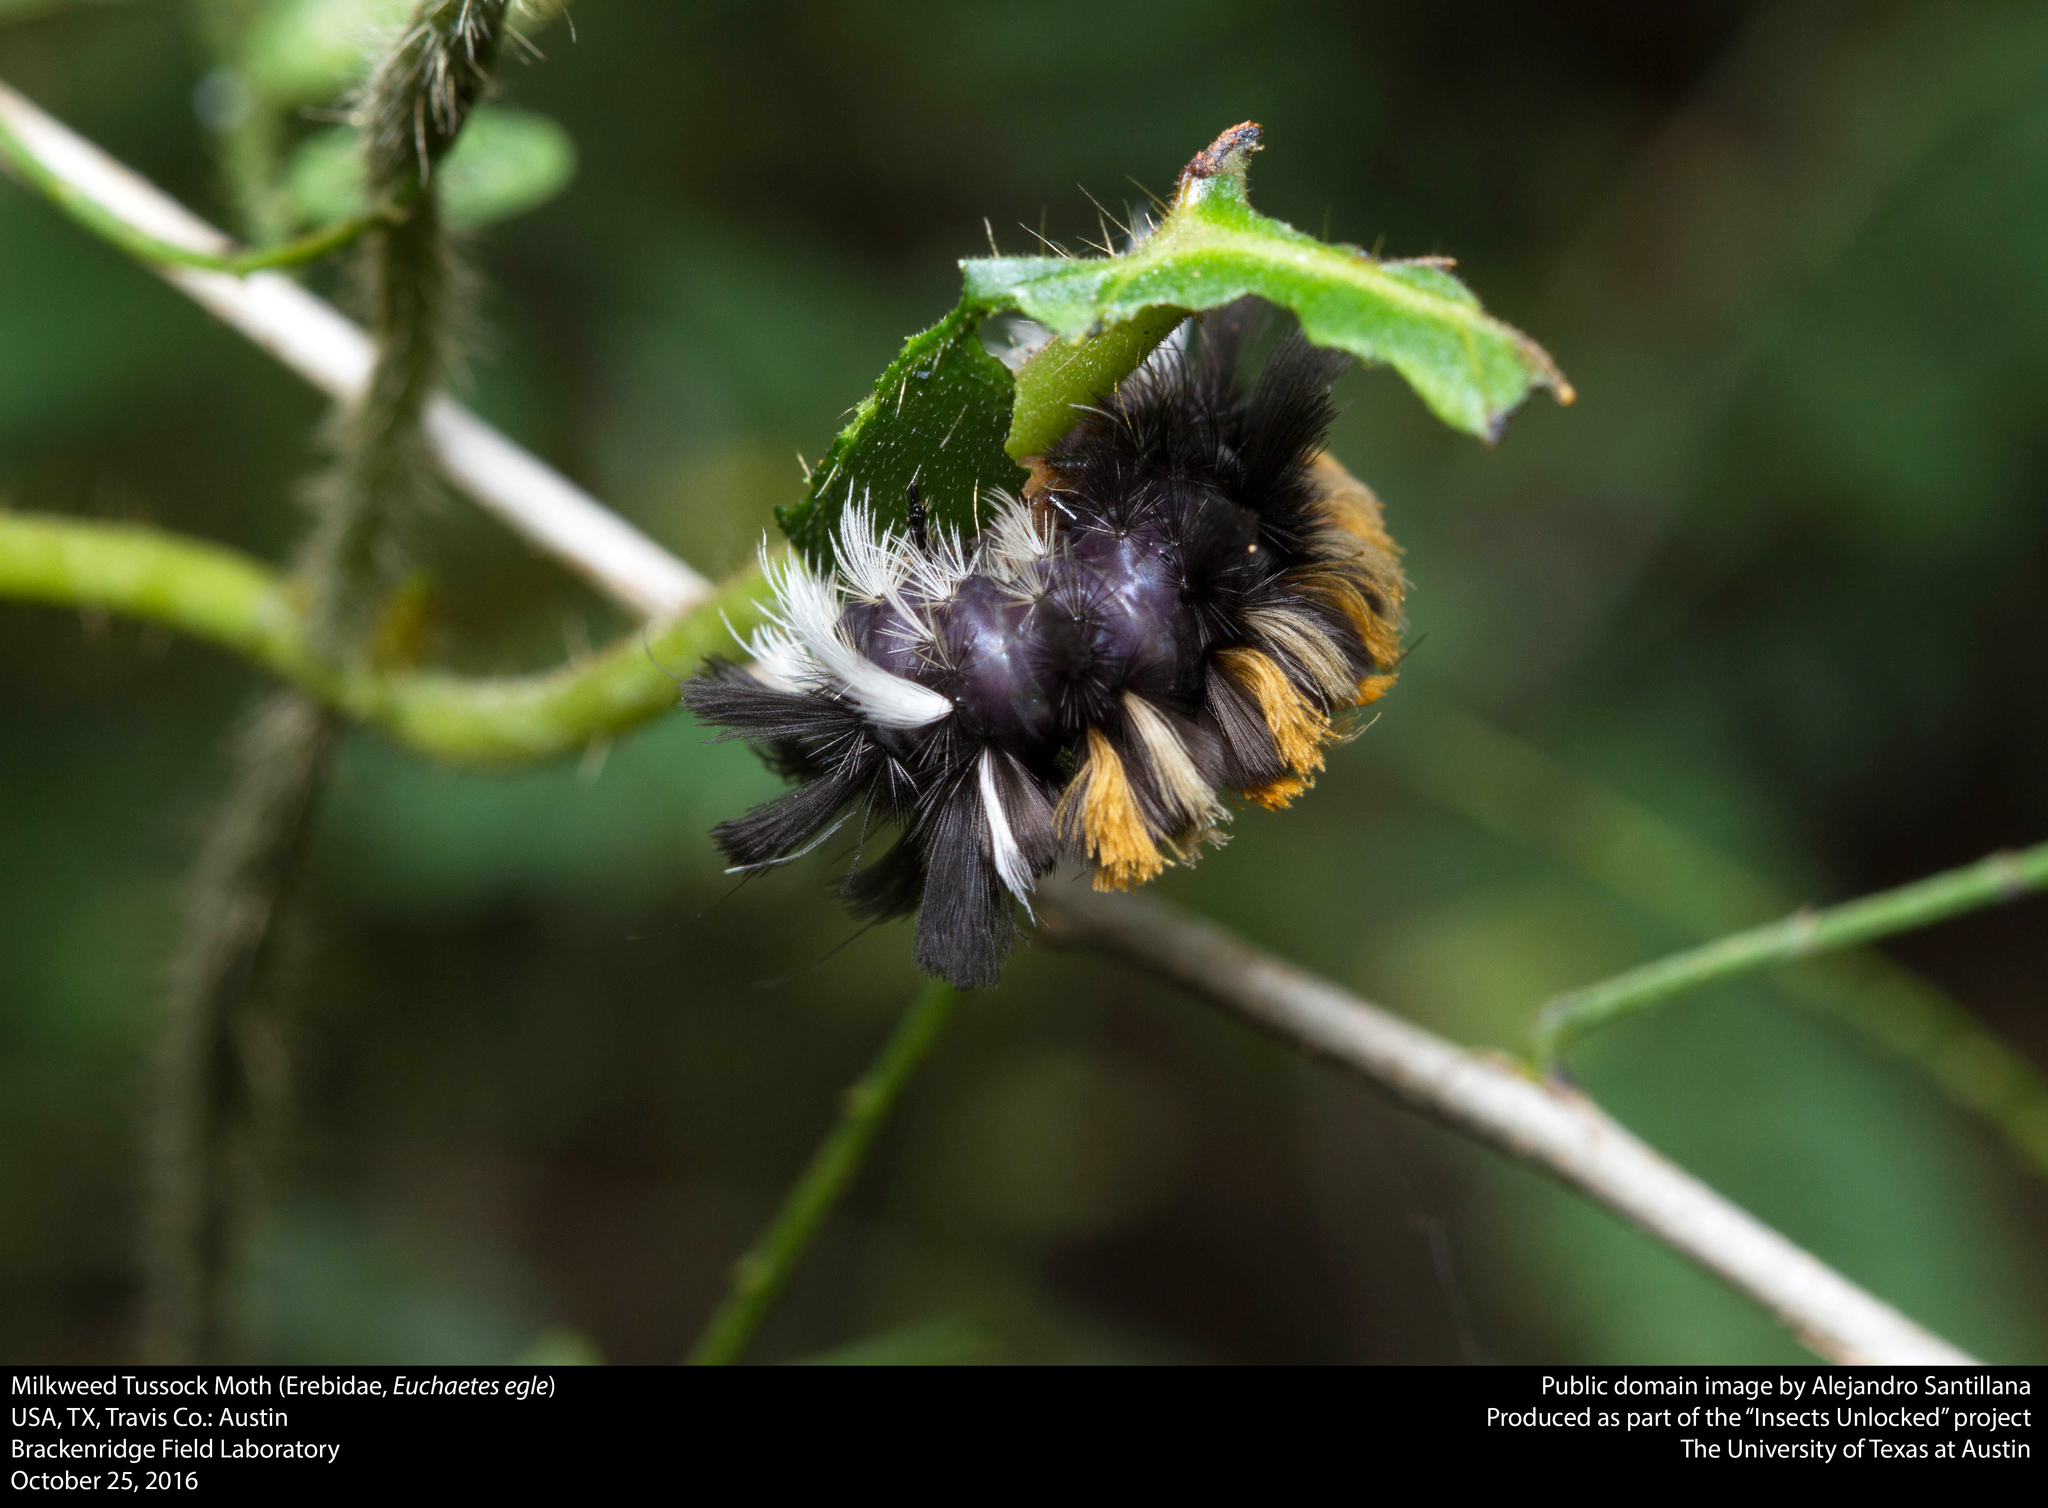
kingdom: Animalia
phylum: Arthropoda
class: Insecta
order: Lepidoptera
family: Erebidae
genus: Euchaetes
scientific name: Euchaetes egle
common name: Milkweed tussock moth
